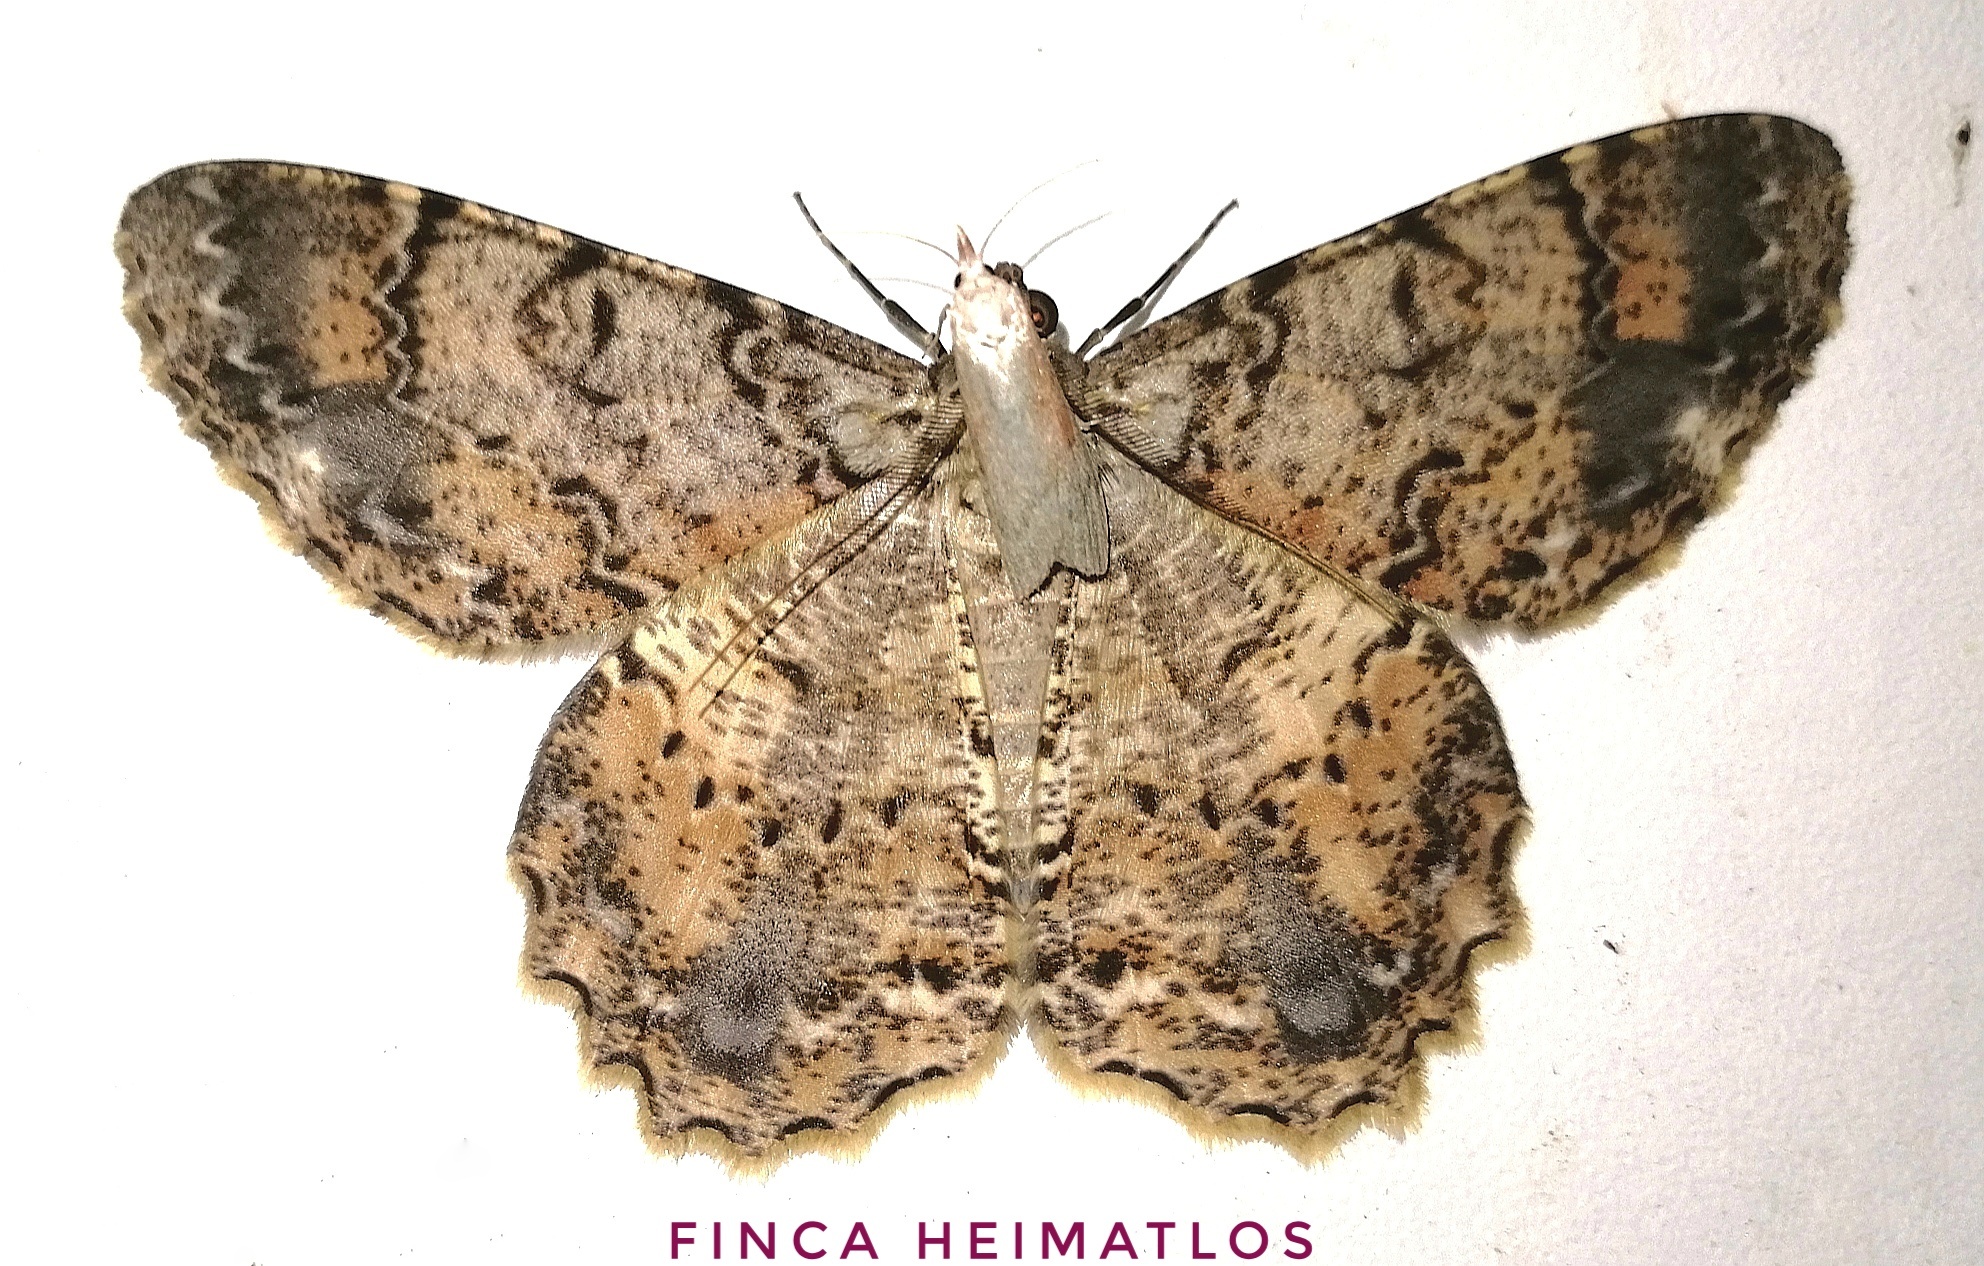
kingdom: Animalia
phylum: Arthropoda
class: Insecta
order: Lepidoptera
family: Geometridae
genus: Epimecis
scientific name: Epimecis subroraria
